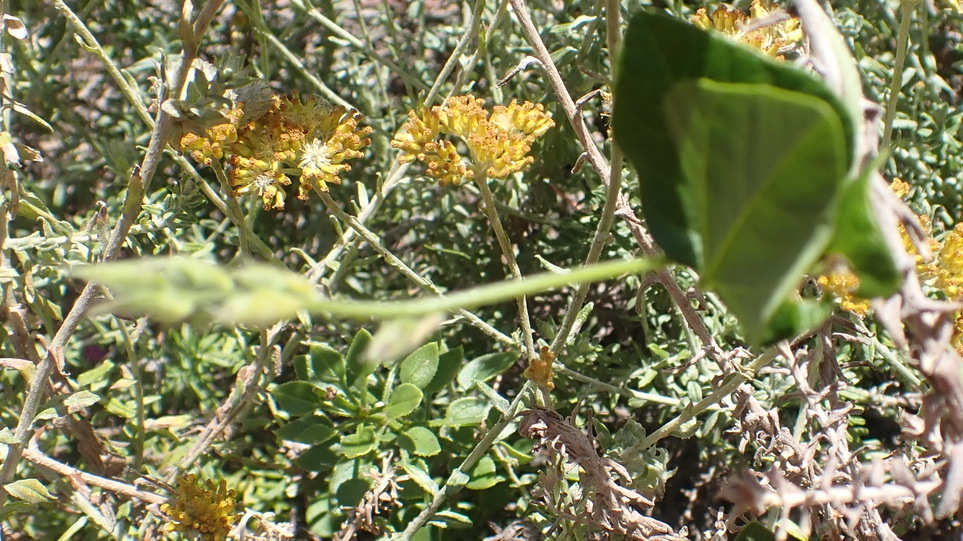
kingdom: Plantae
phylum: Tracheophyta
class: Magnoliopsida
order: Fabales
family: Fabaceae
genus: Dipogon
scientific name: Dipogon lignosus
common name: Okie bean
